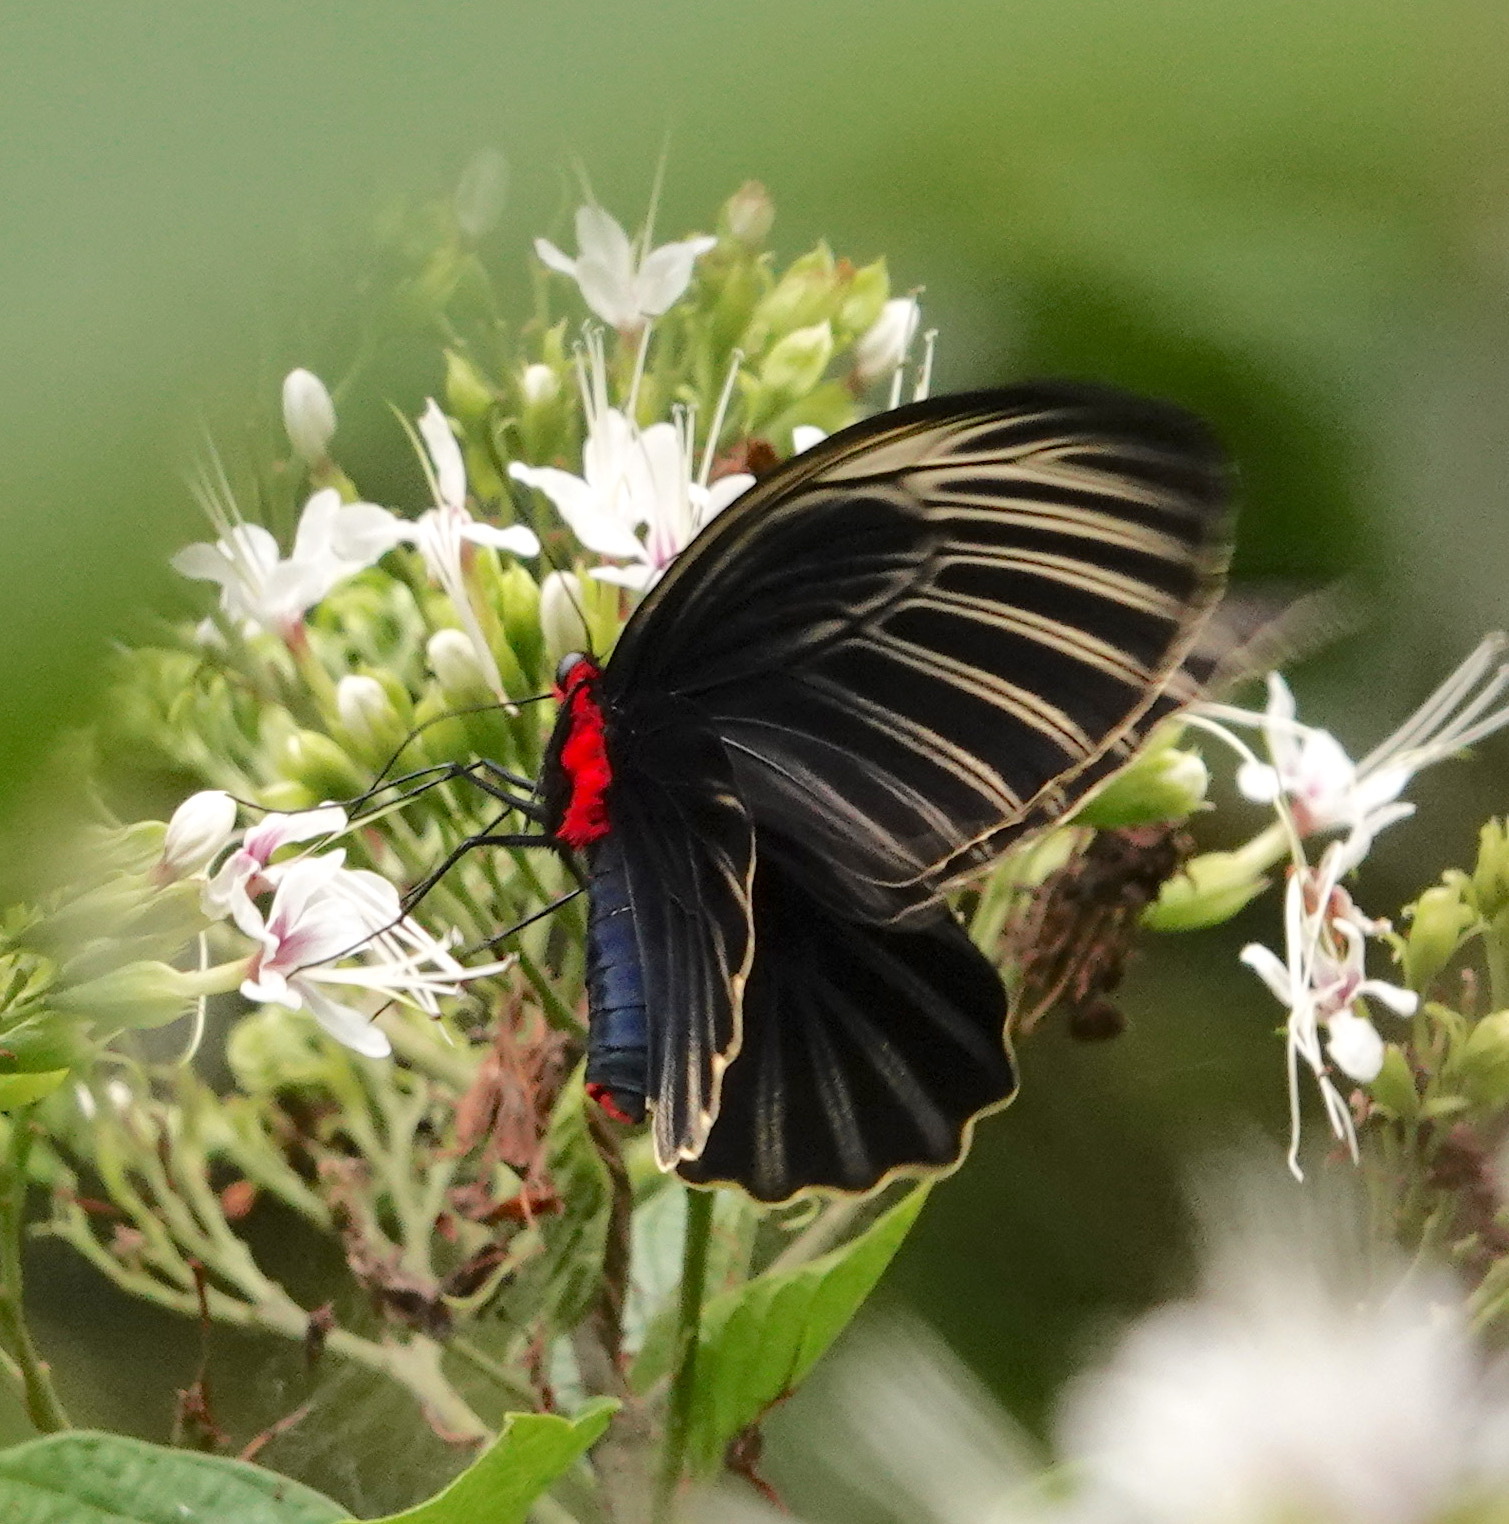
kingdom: Animalia
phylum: Arthropoda
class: Insecta
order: Lepidoptera
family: Papilionidae
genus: Atrophaneura
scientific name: Atrophaneura nox
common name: Malayan batwing
